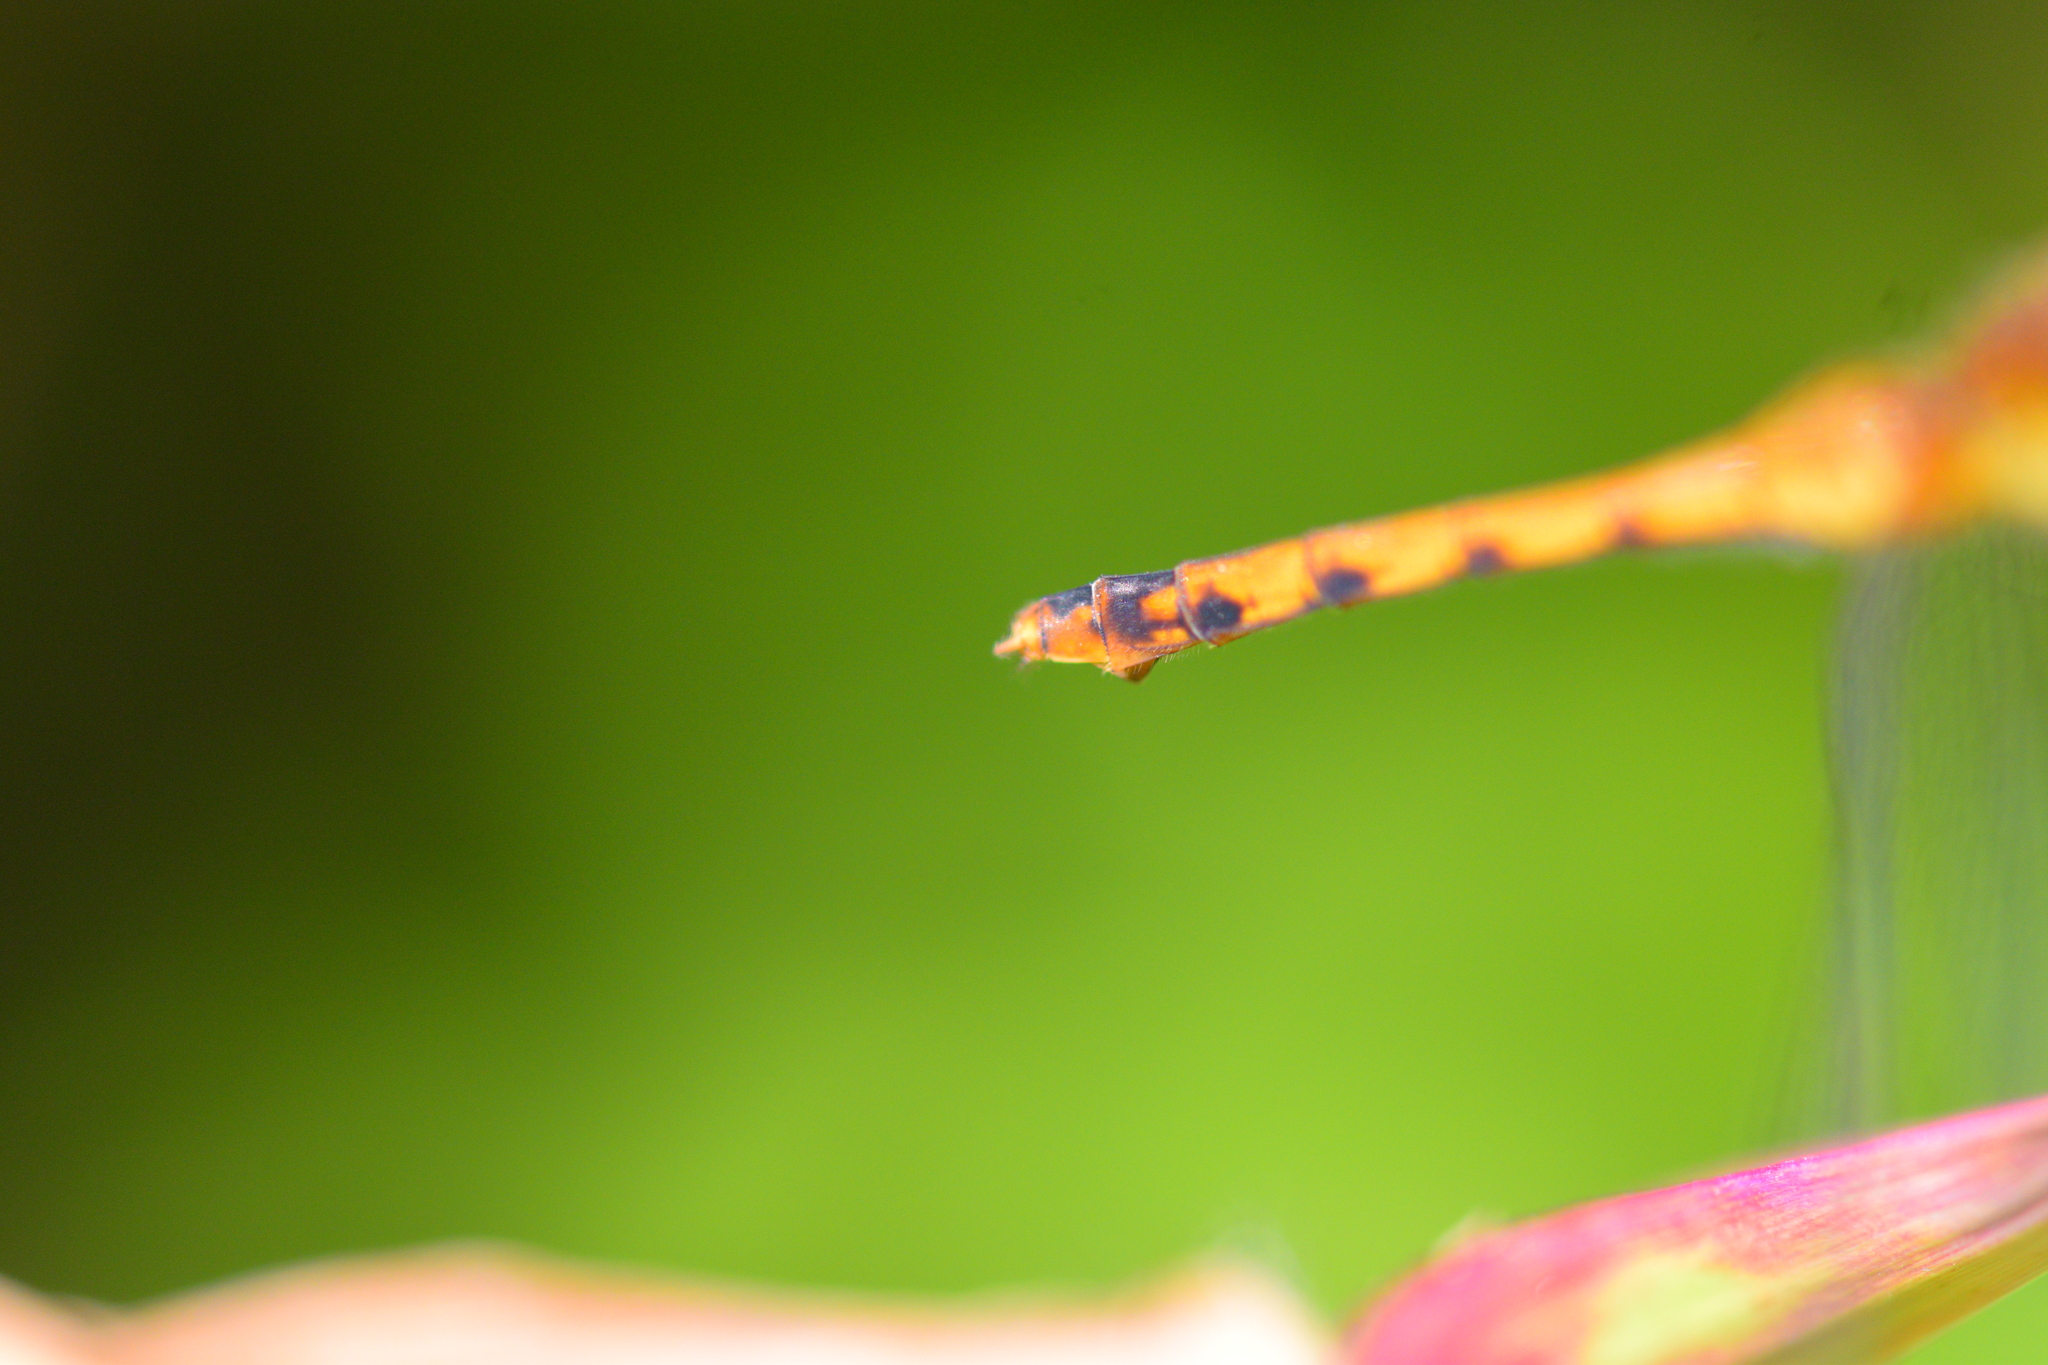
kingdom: Animalia
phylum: Arthropoda
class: Insecta
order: Odonata
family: Libellulidae
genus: Sympetrum
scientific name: Sympetrum vicinum
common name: Autumn meadowhawk
